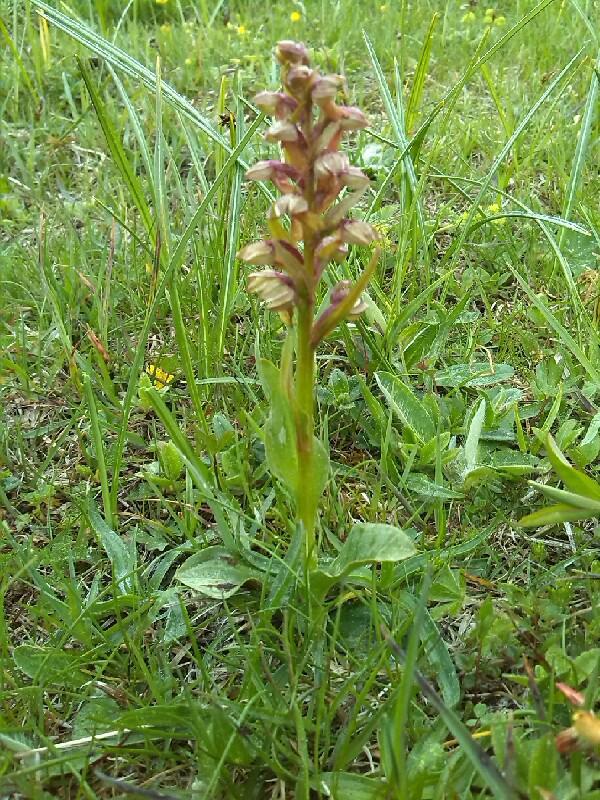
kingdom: Plantae
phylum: Tracheophyta
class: Liliopsida
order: Asparagales
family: Orchidaceae
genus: Dactylorhiza
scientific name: Dactylorhiza viridis
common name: Longbract frog orchid
